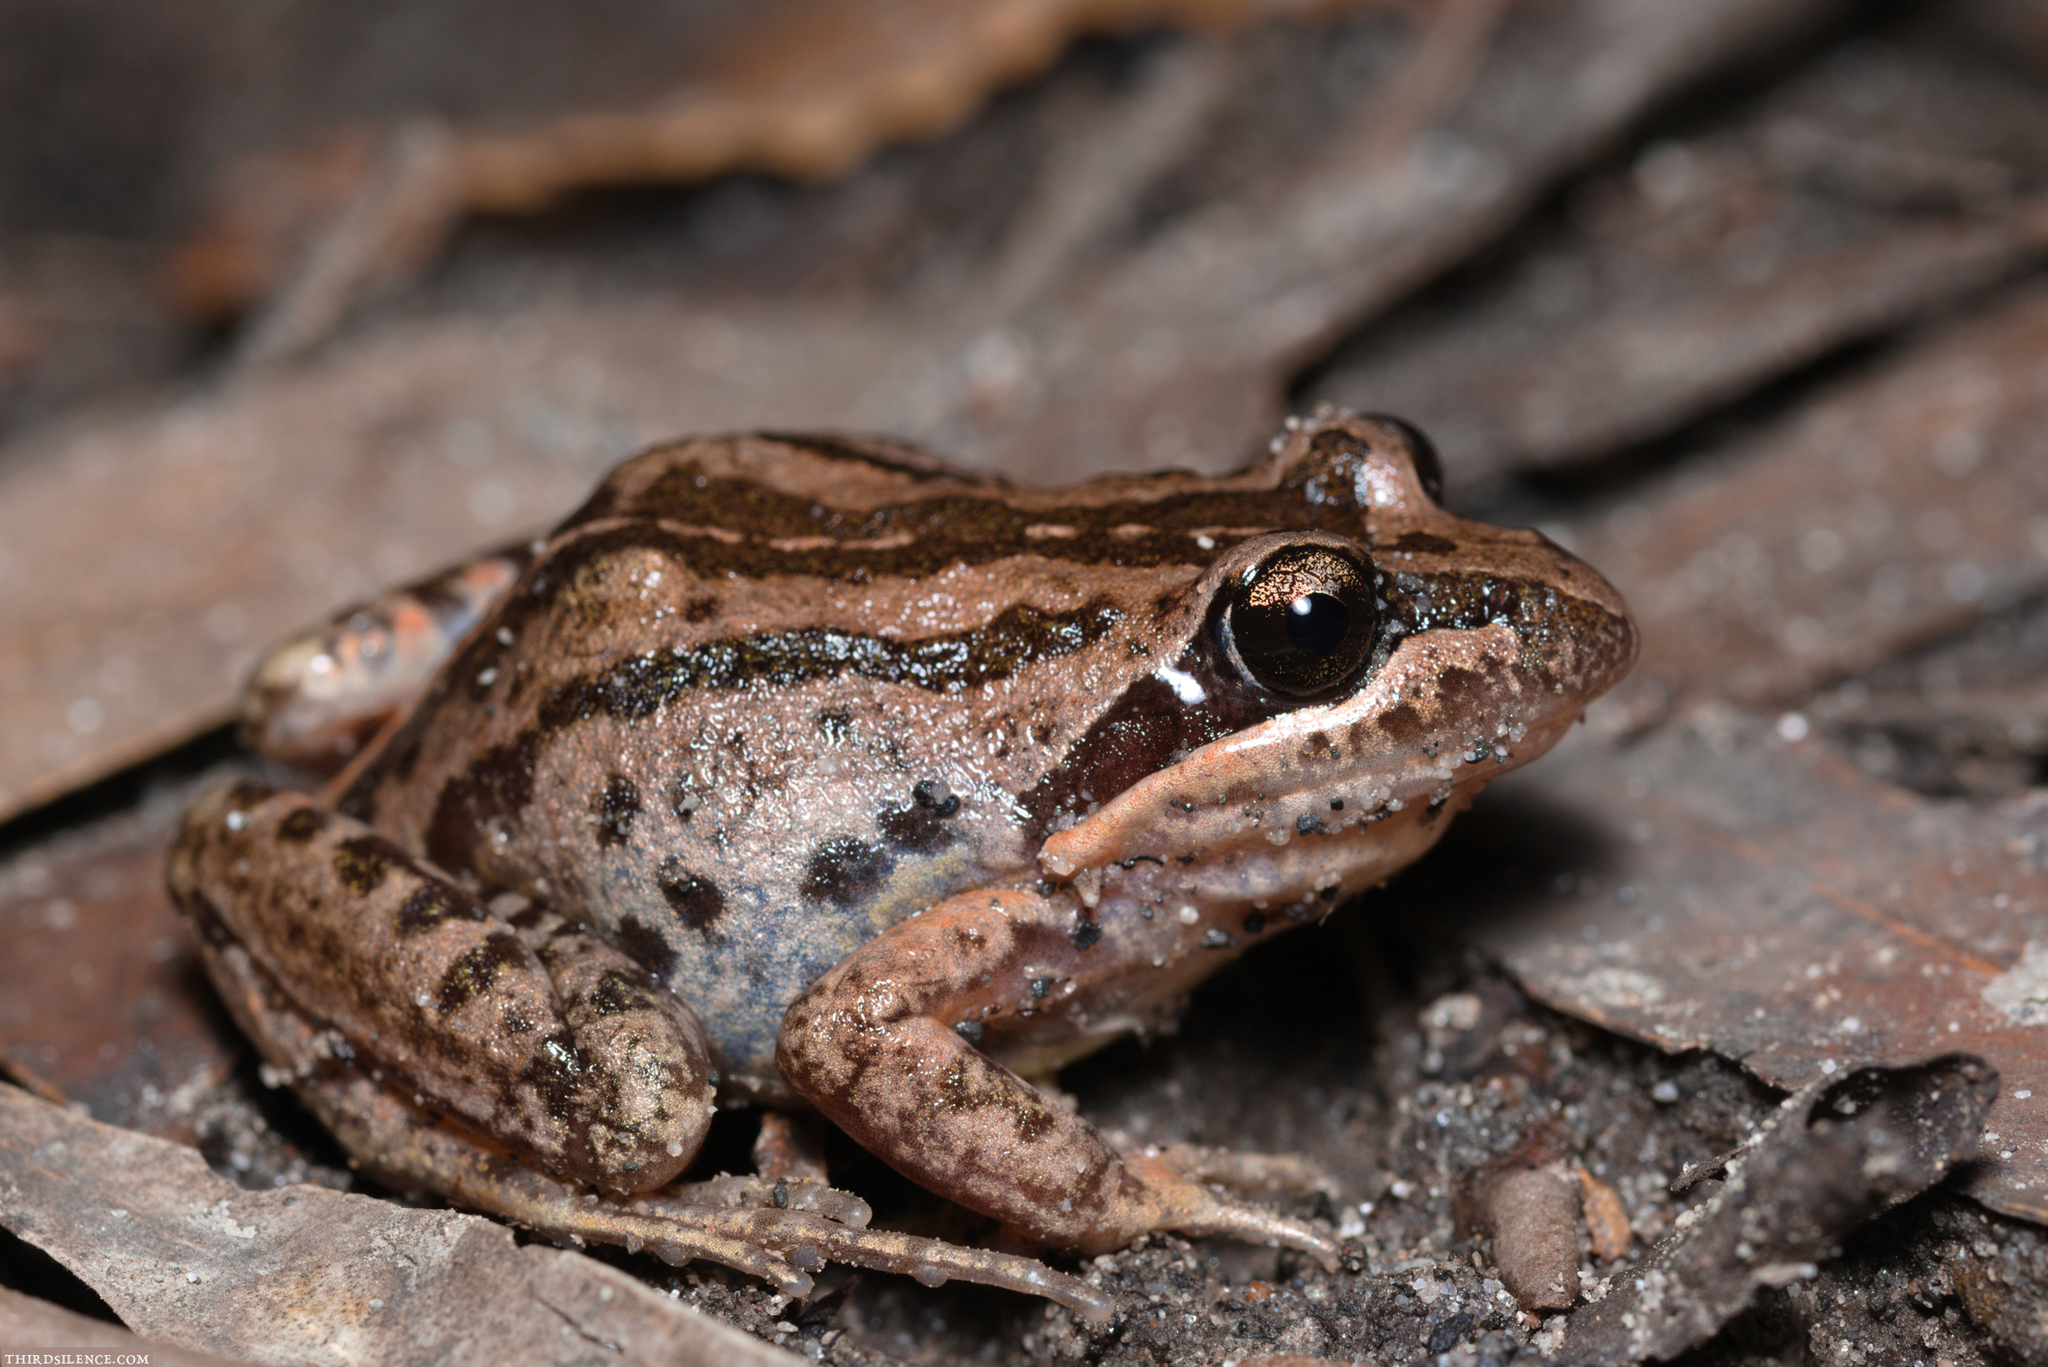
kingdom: Animalia
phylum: Chordata
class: Amphibia
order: Anura
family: Limnodynastidae
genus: Limnodynastes
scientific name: Limnodynastes peronii
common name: Brown frog
